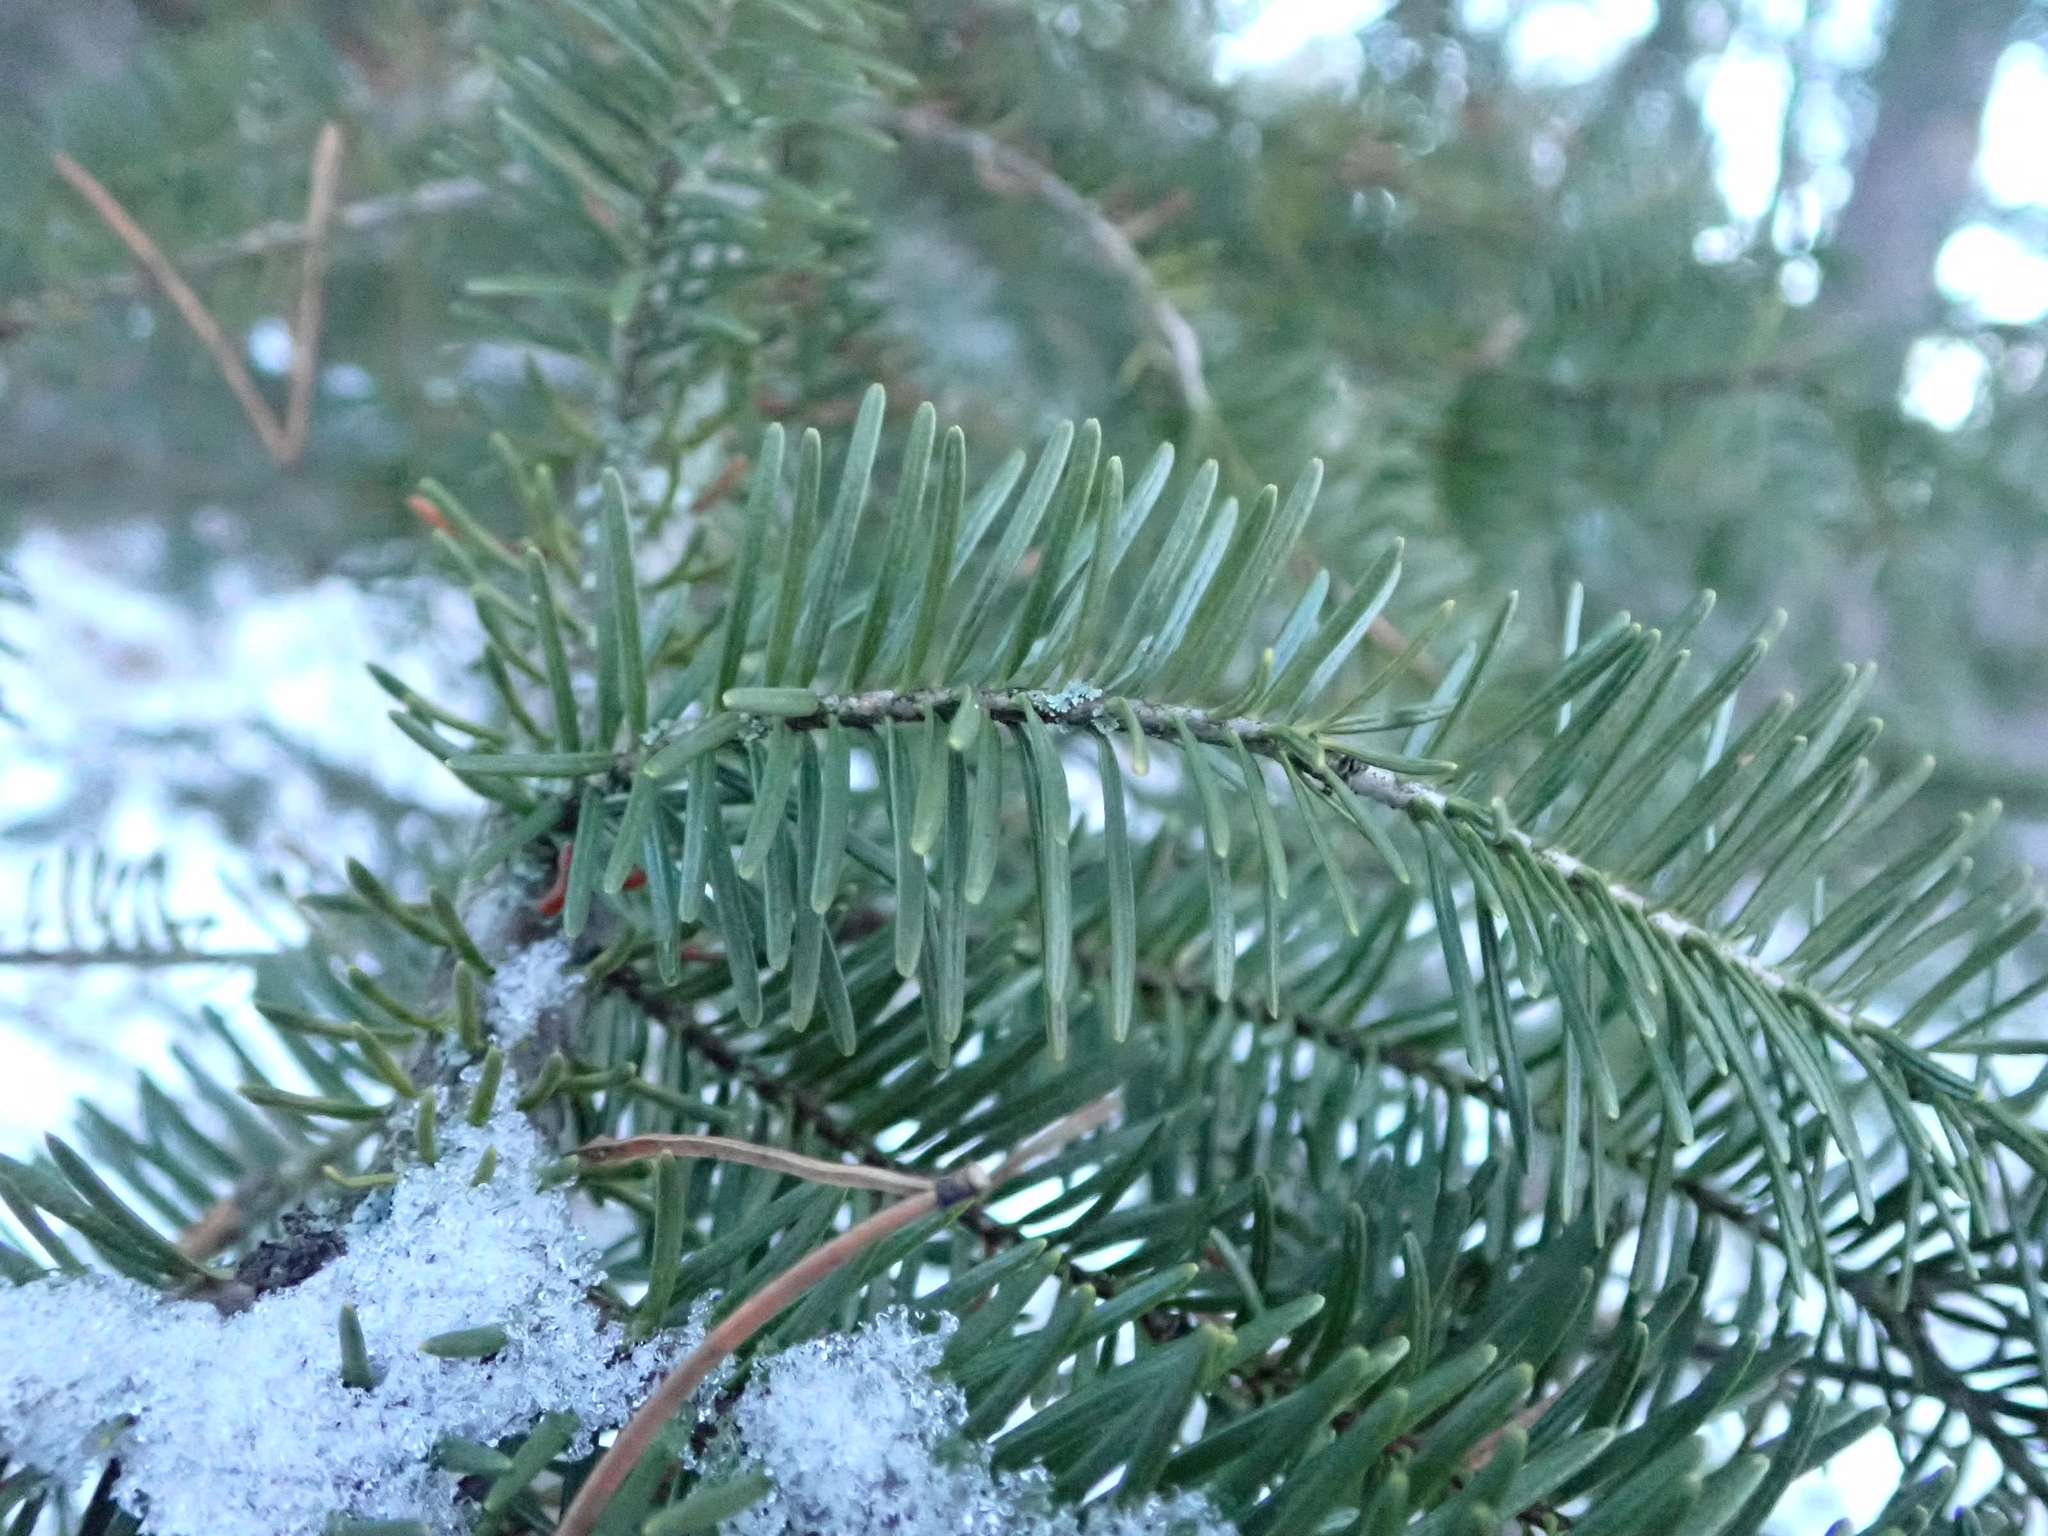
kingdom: Plantae
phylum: Tracheophyta
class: Pinopsida
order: Pinales
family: Pinaceae
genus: Picea
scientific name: Picea glauca
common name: White spruce
